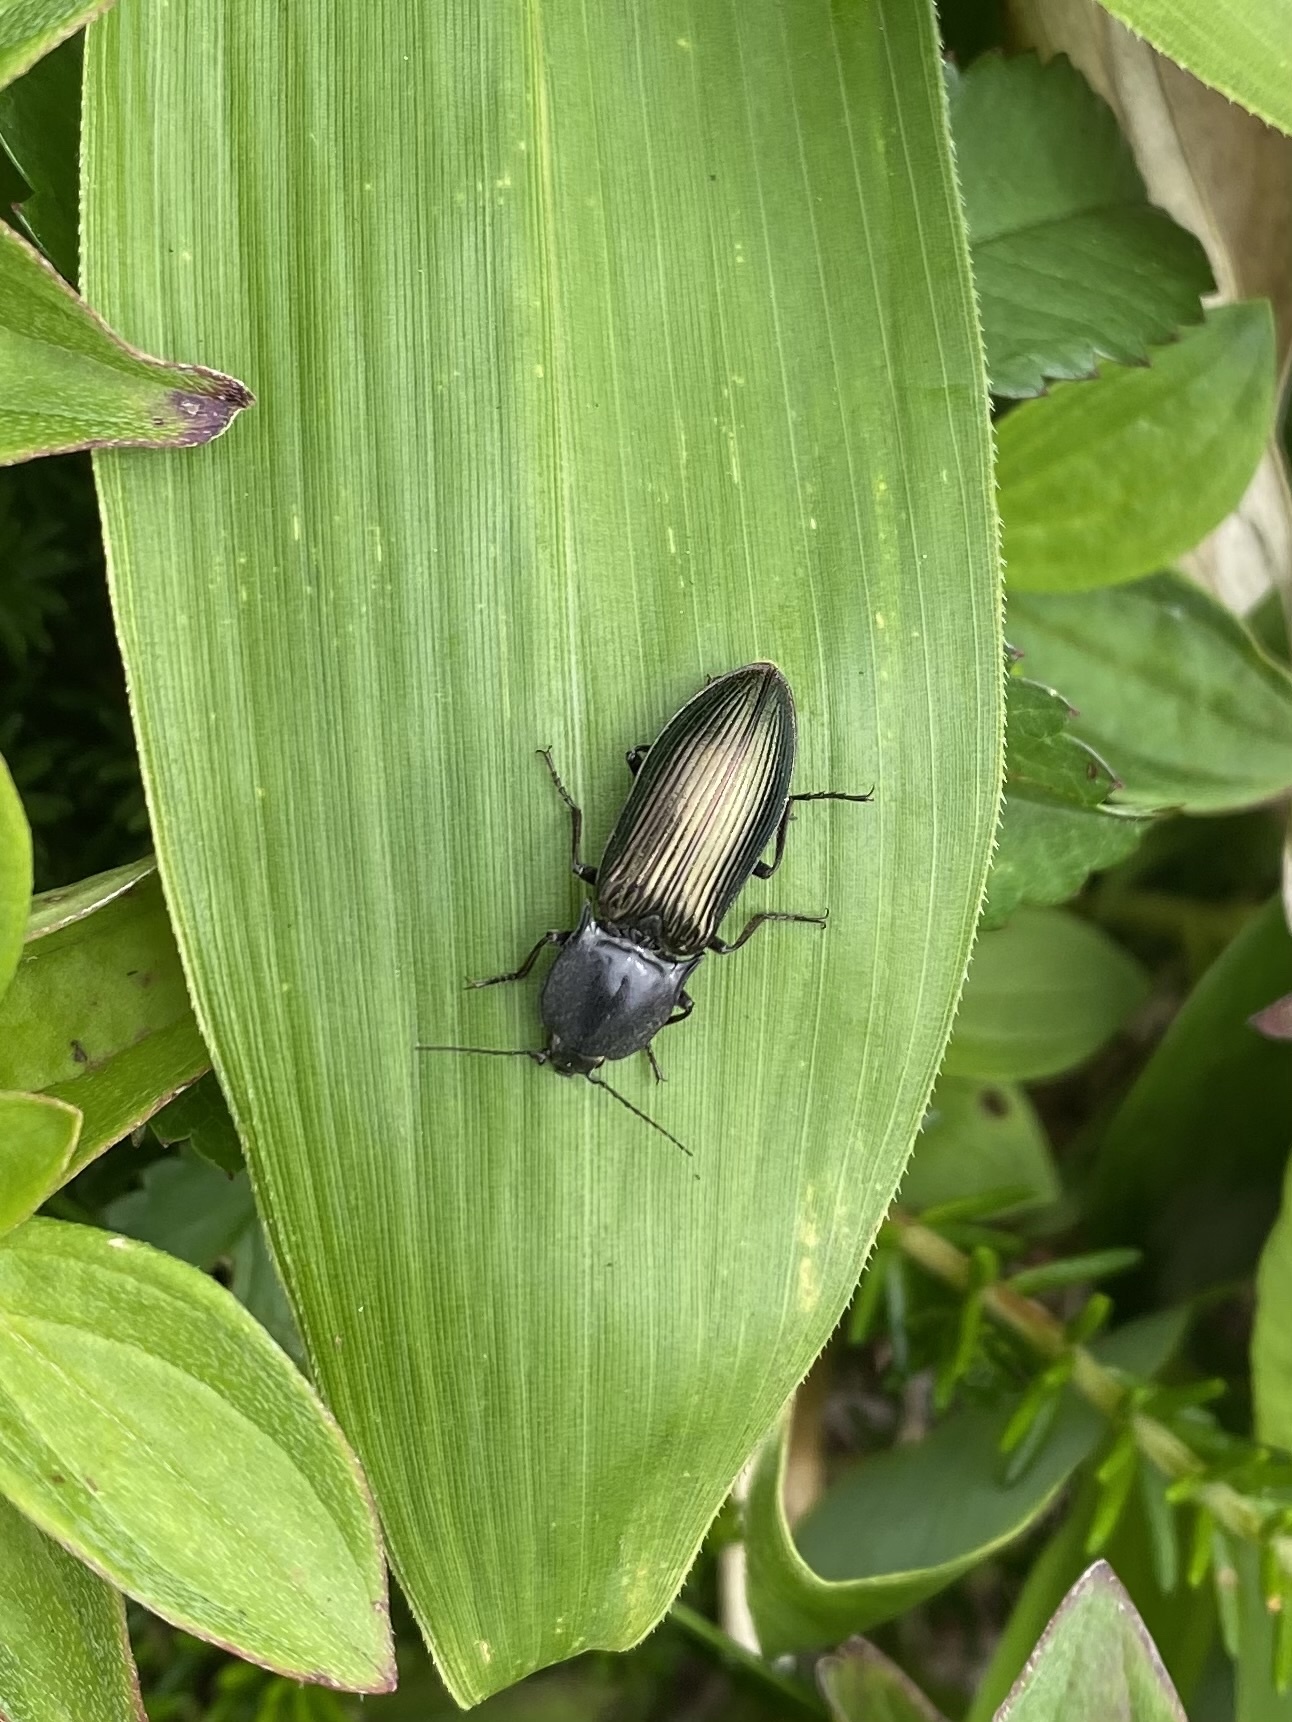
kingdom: Animalia
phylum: Arthropoda
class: Insecta
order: Coleoptera
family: Elateridae
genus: Selatosomus
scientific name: Selatosomus puncticollis
